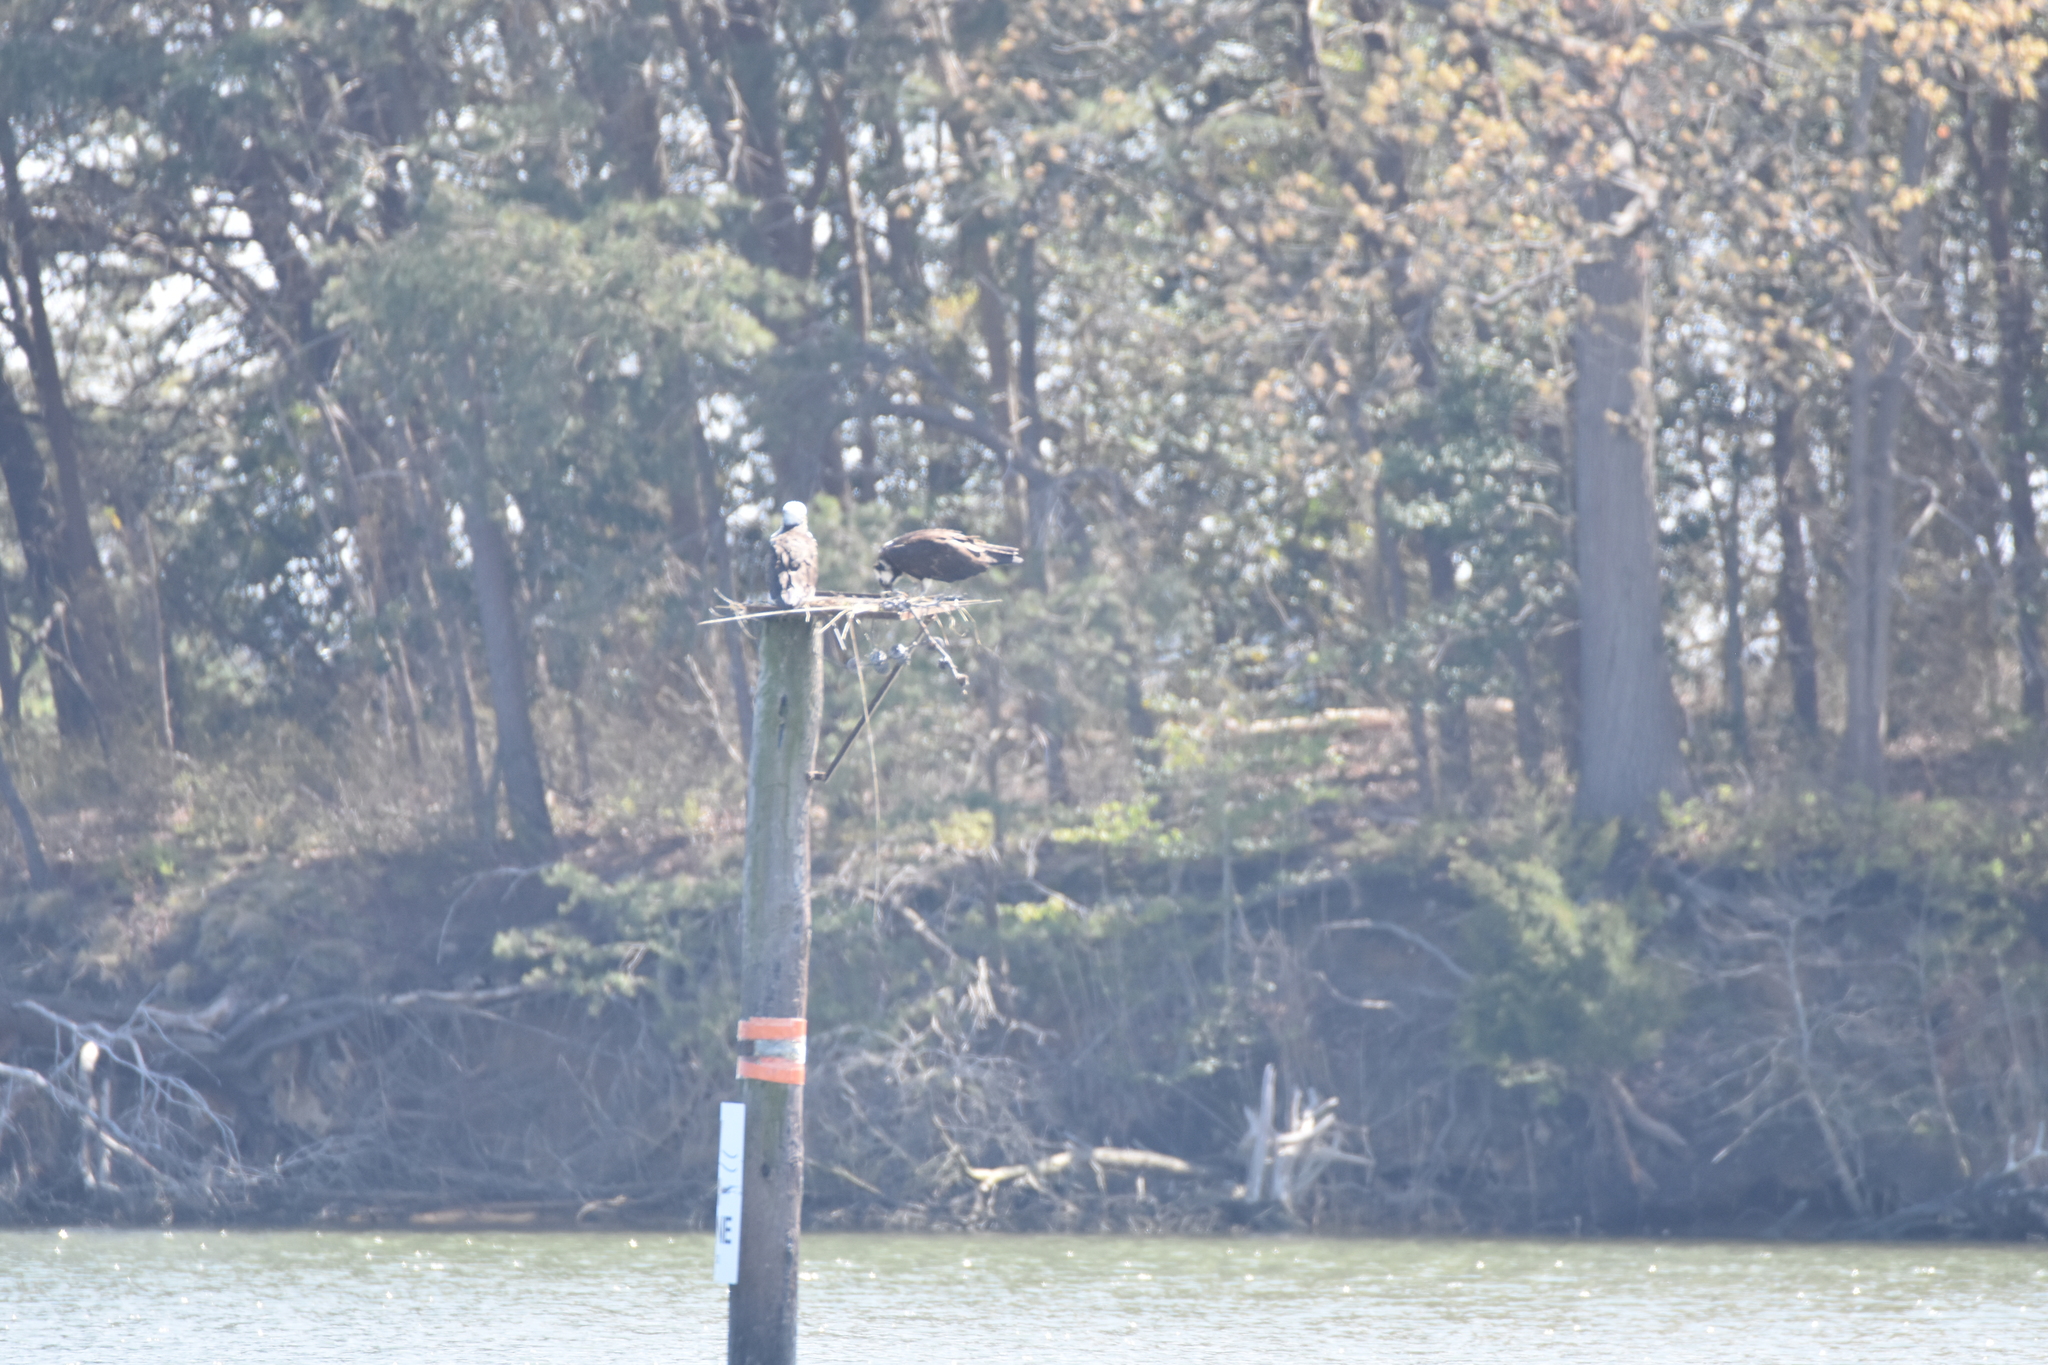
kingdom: Animalia
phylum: Chordata
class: Aves
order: Accipitriformes
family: Pandionidae
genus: Pandion
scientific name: Pandion haliaetus
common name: Osprey
